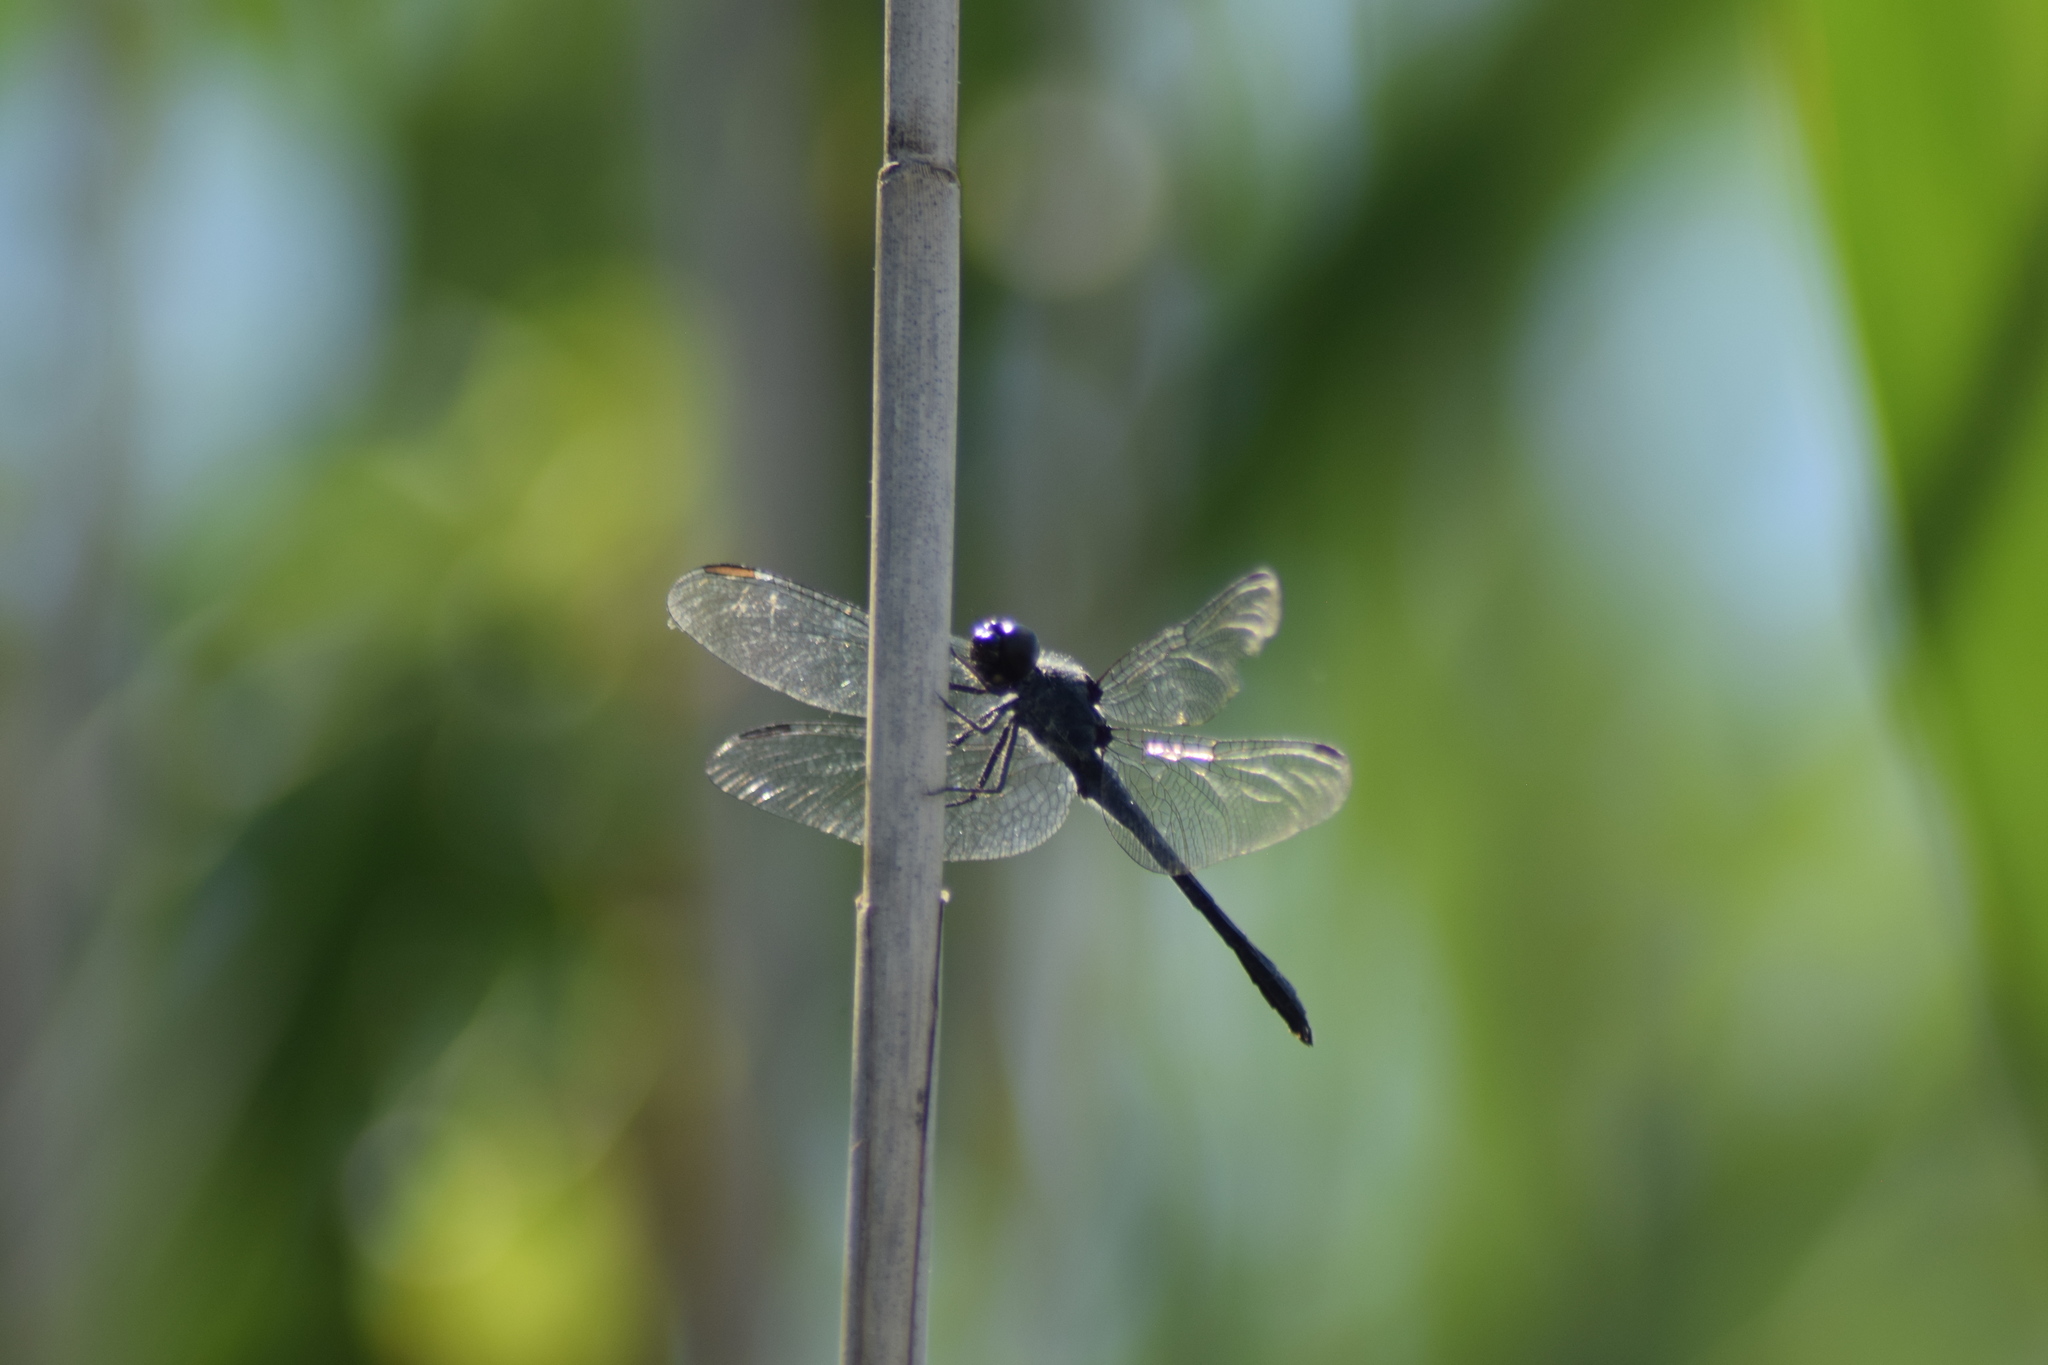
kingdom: Animalia
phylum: Arthropoda
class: Insecta
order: Odonata
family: Libellulidae
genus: Erythrodiplax
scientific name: Erythrodiplax berenice
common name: Seaside dragonlet
